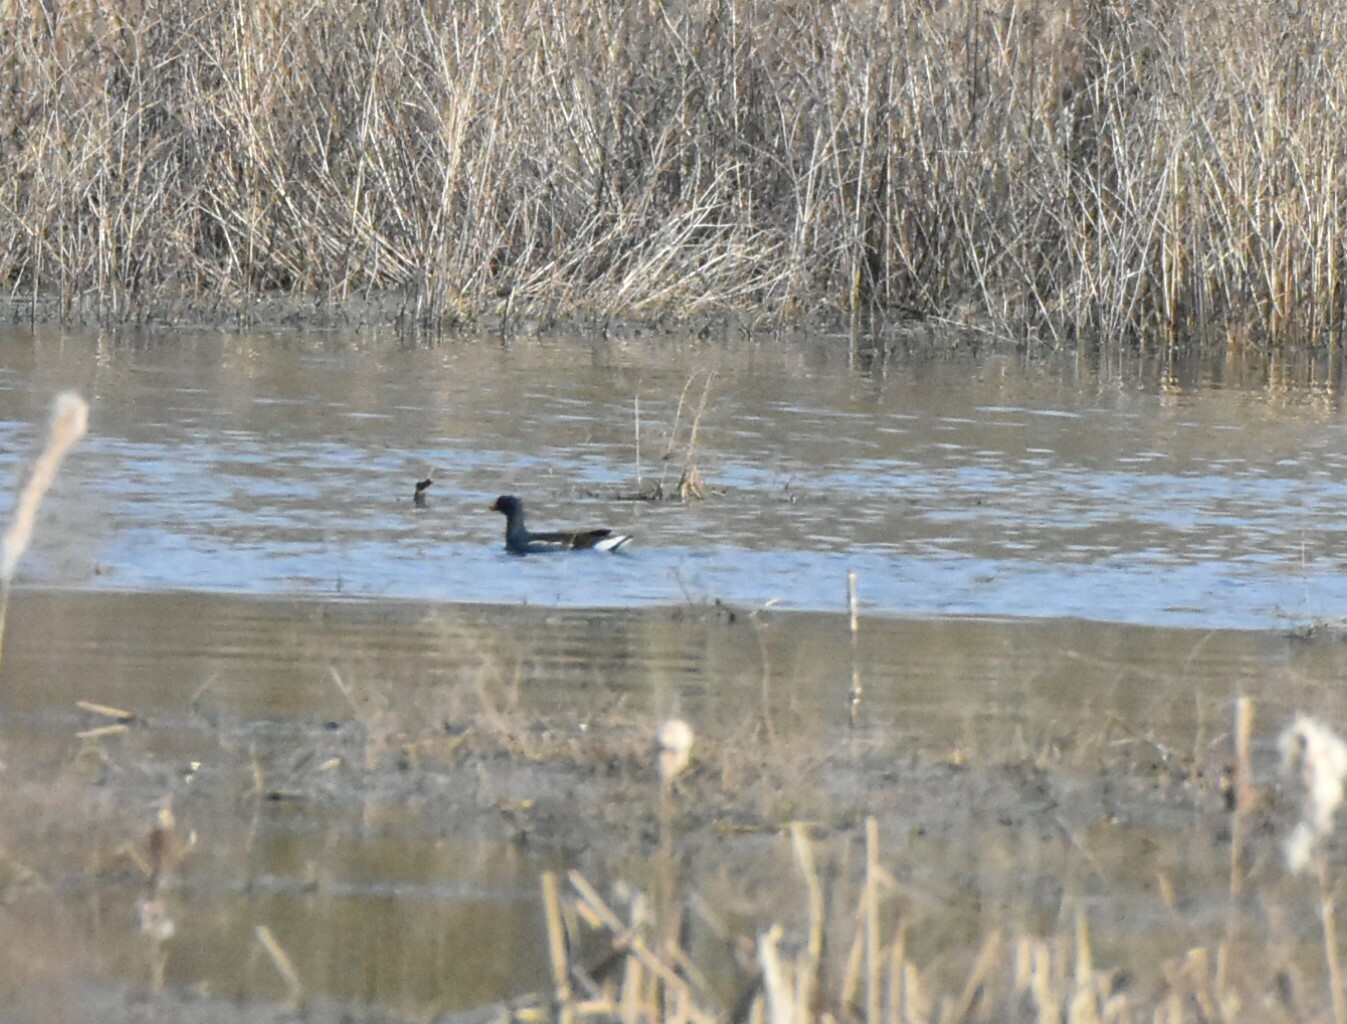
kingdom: Animalia
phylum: Chordata
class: Aves
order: Gruiformes
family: Rallidae
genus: Gallinula
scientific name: Gallinula chloropus
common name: Common moorhen
